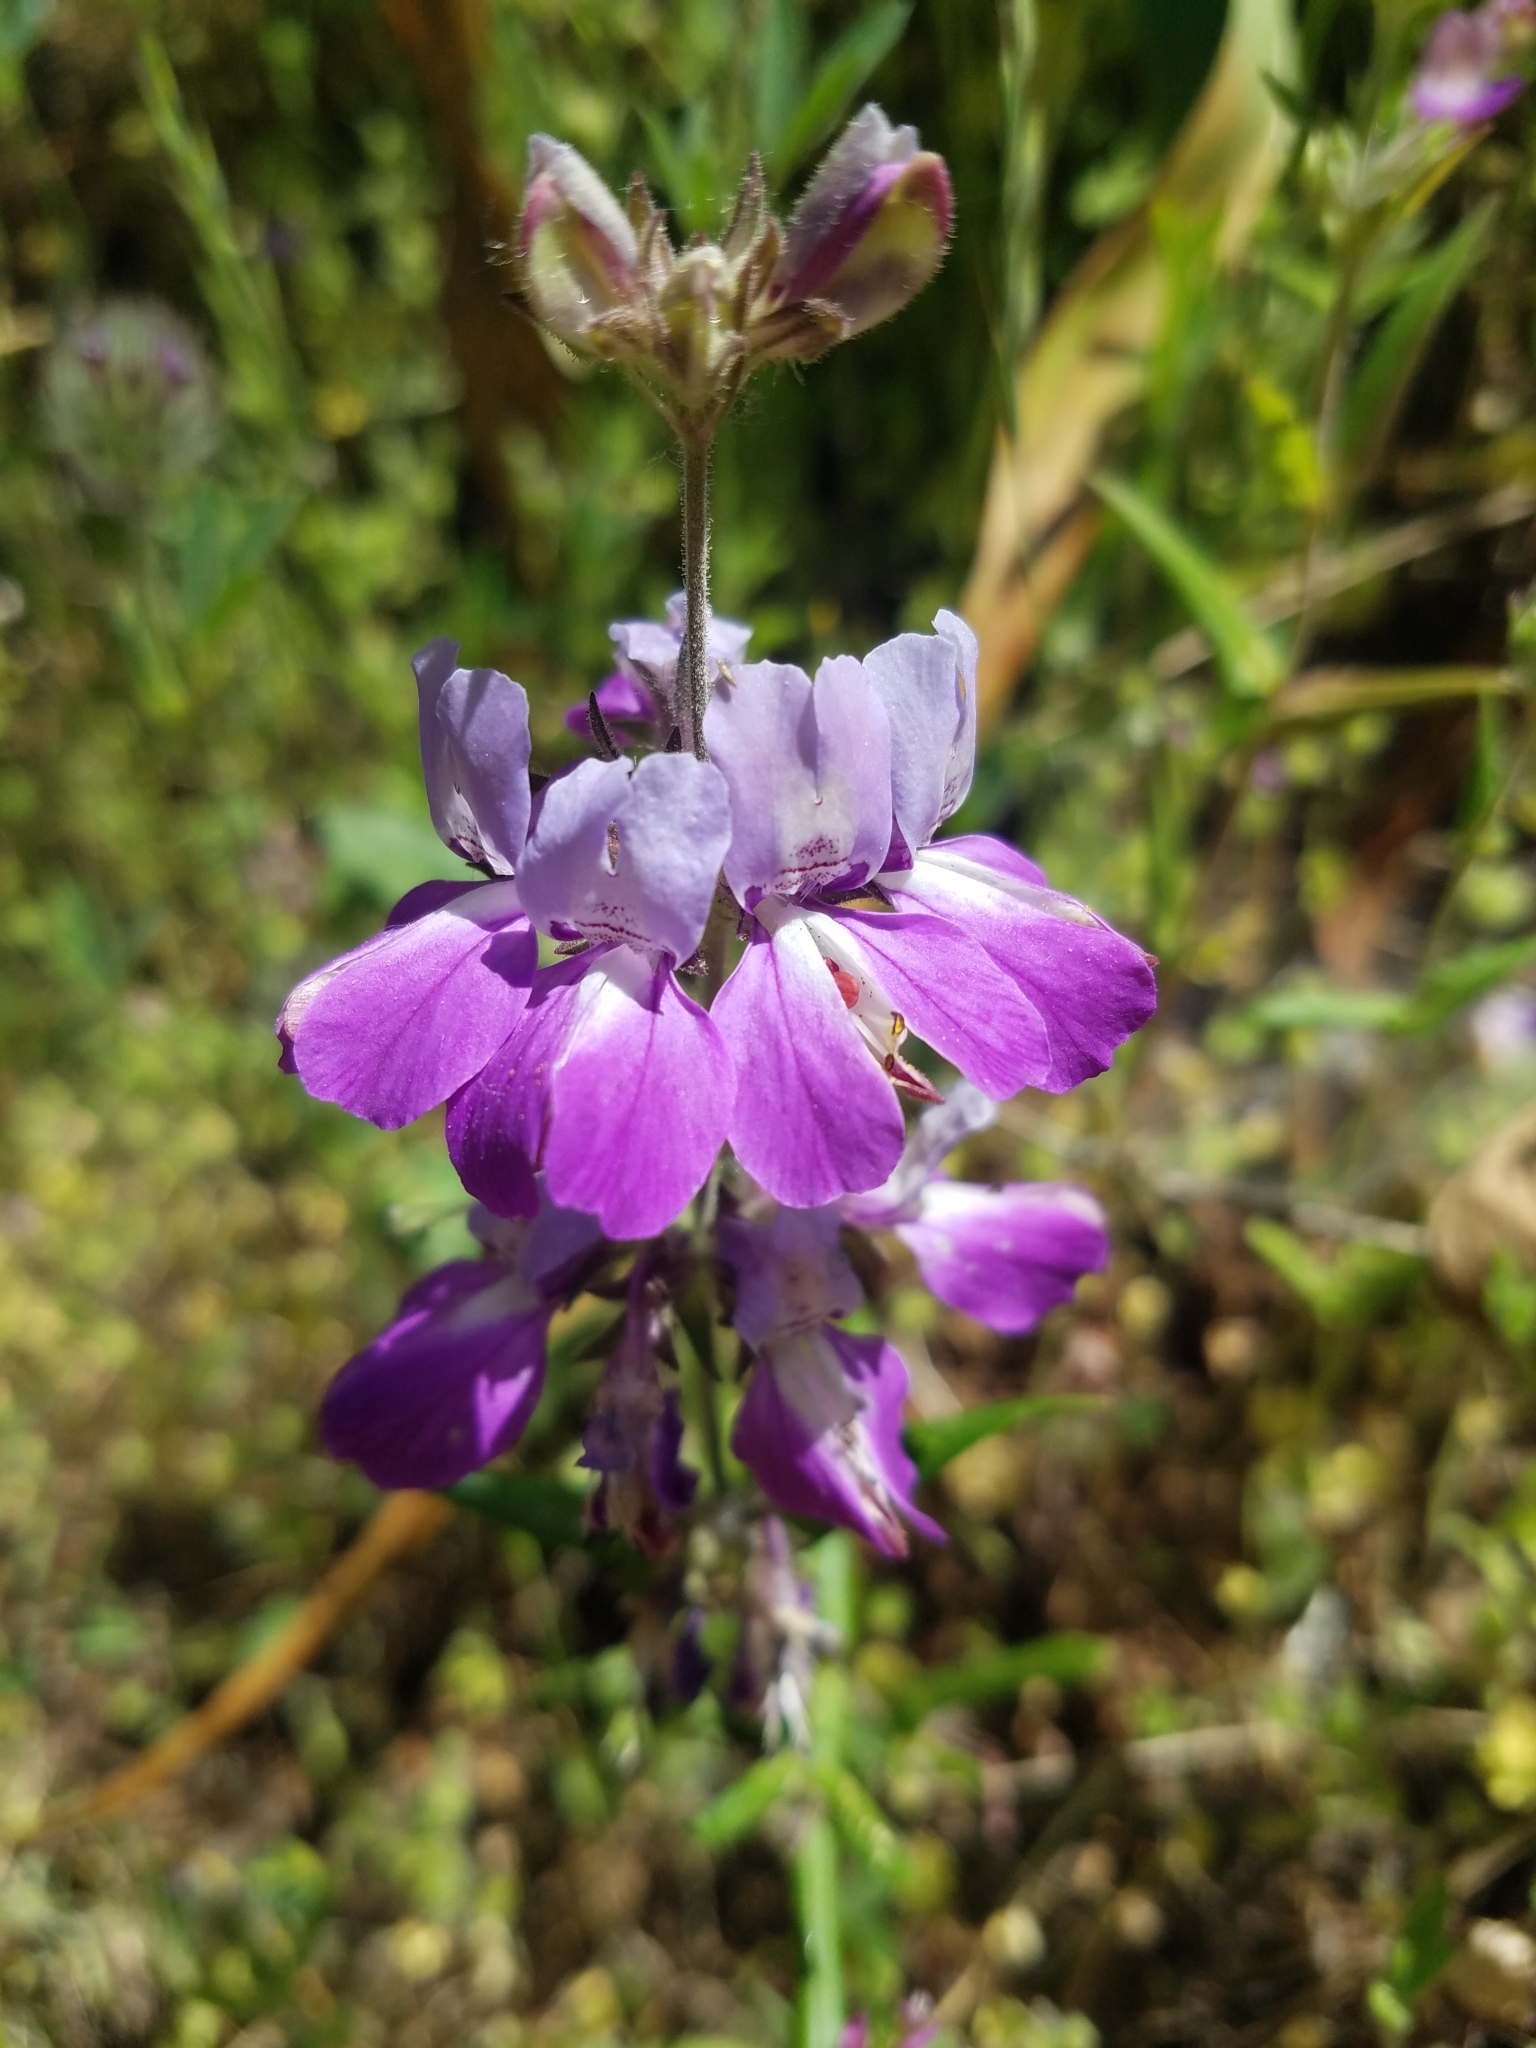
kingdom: Plantae
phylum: Tracheophyta
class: Magnoliopsida
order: Lamiales
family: Plantaginaceae
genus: Collinsia
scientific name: Collinsia heterophylla
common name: Chinese-houses
